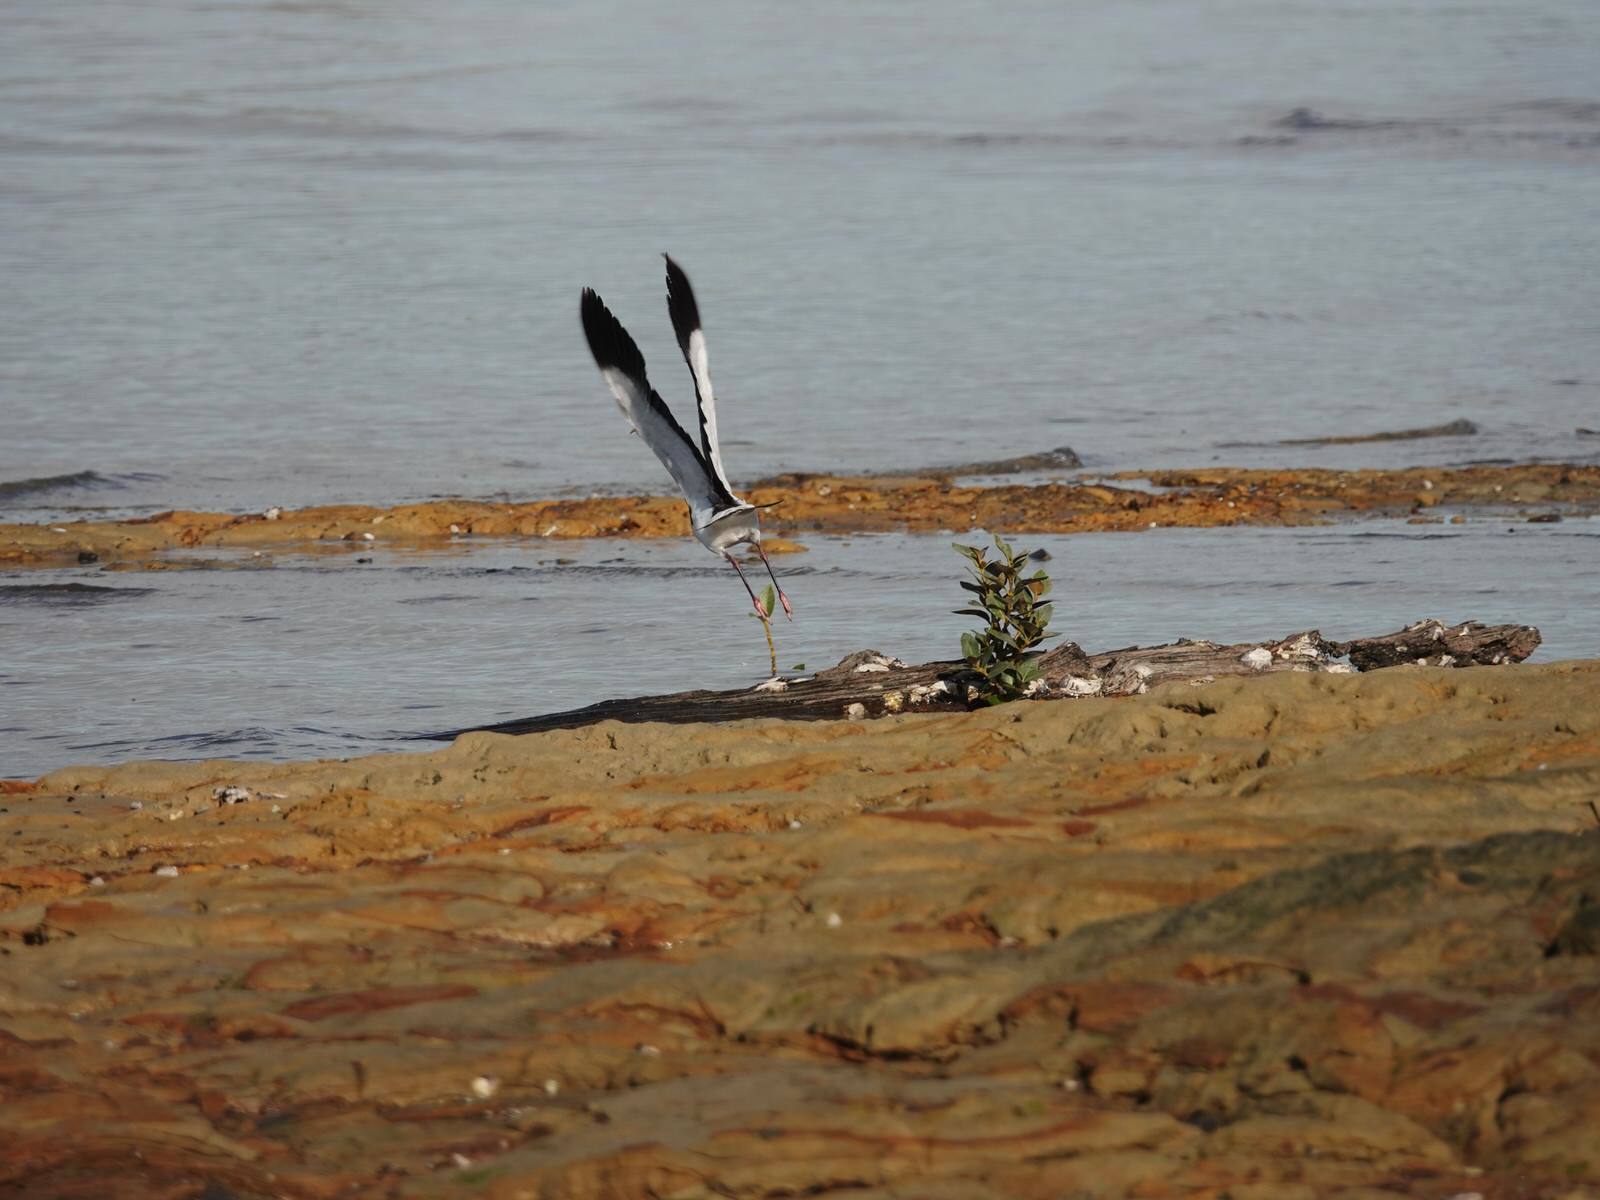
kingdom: Animalia
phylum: Chordata
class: Aves
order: Charadriiformes
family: Charadriidae
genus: Vanellus
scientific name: Vanellus miles
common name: Masked lapwing
